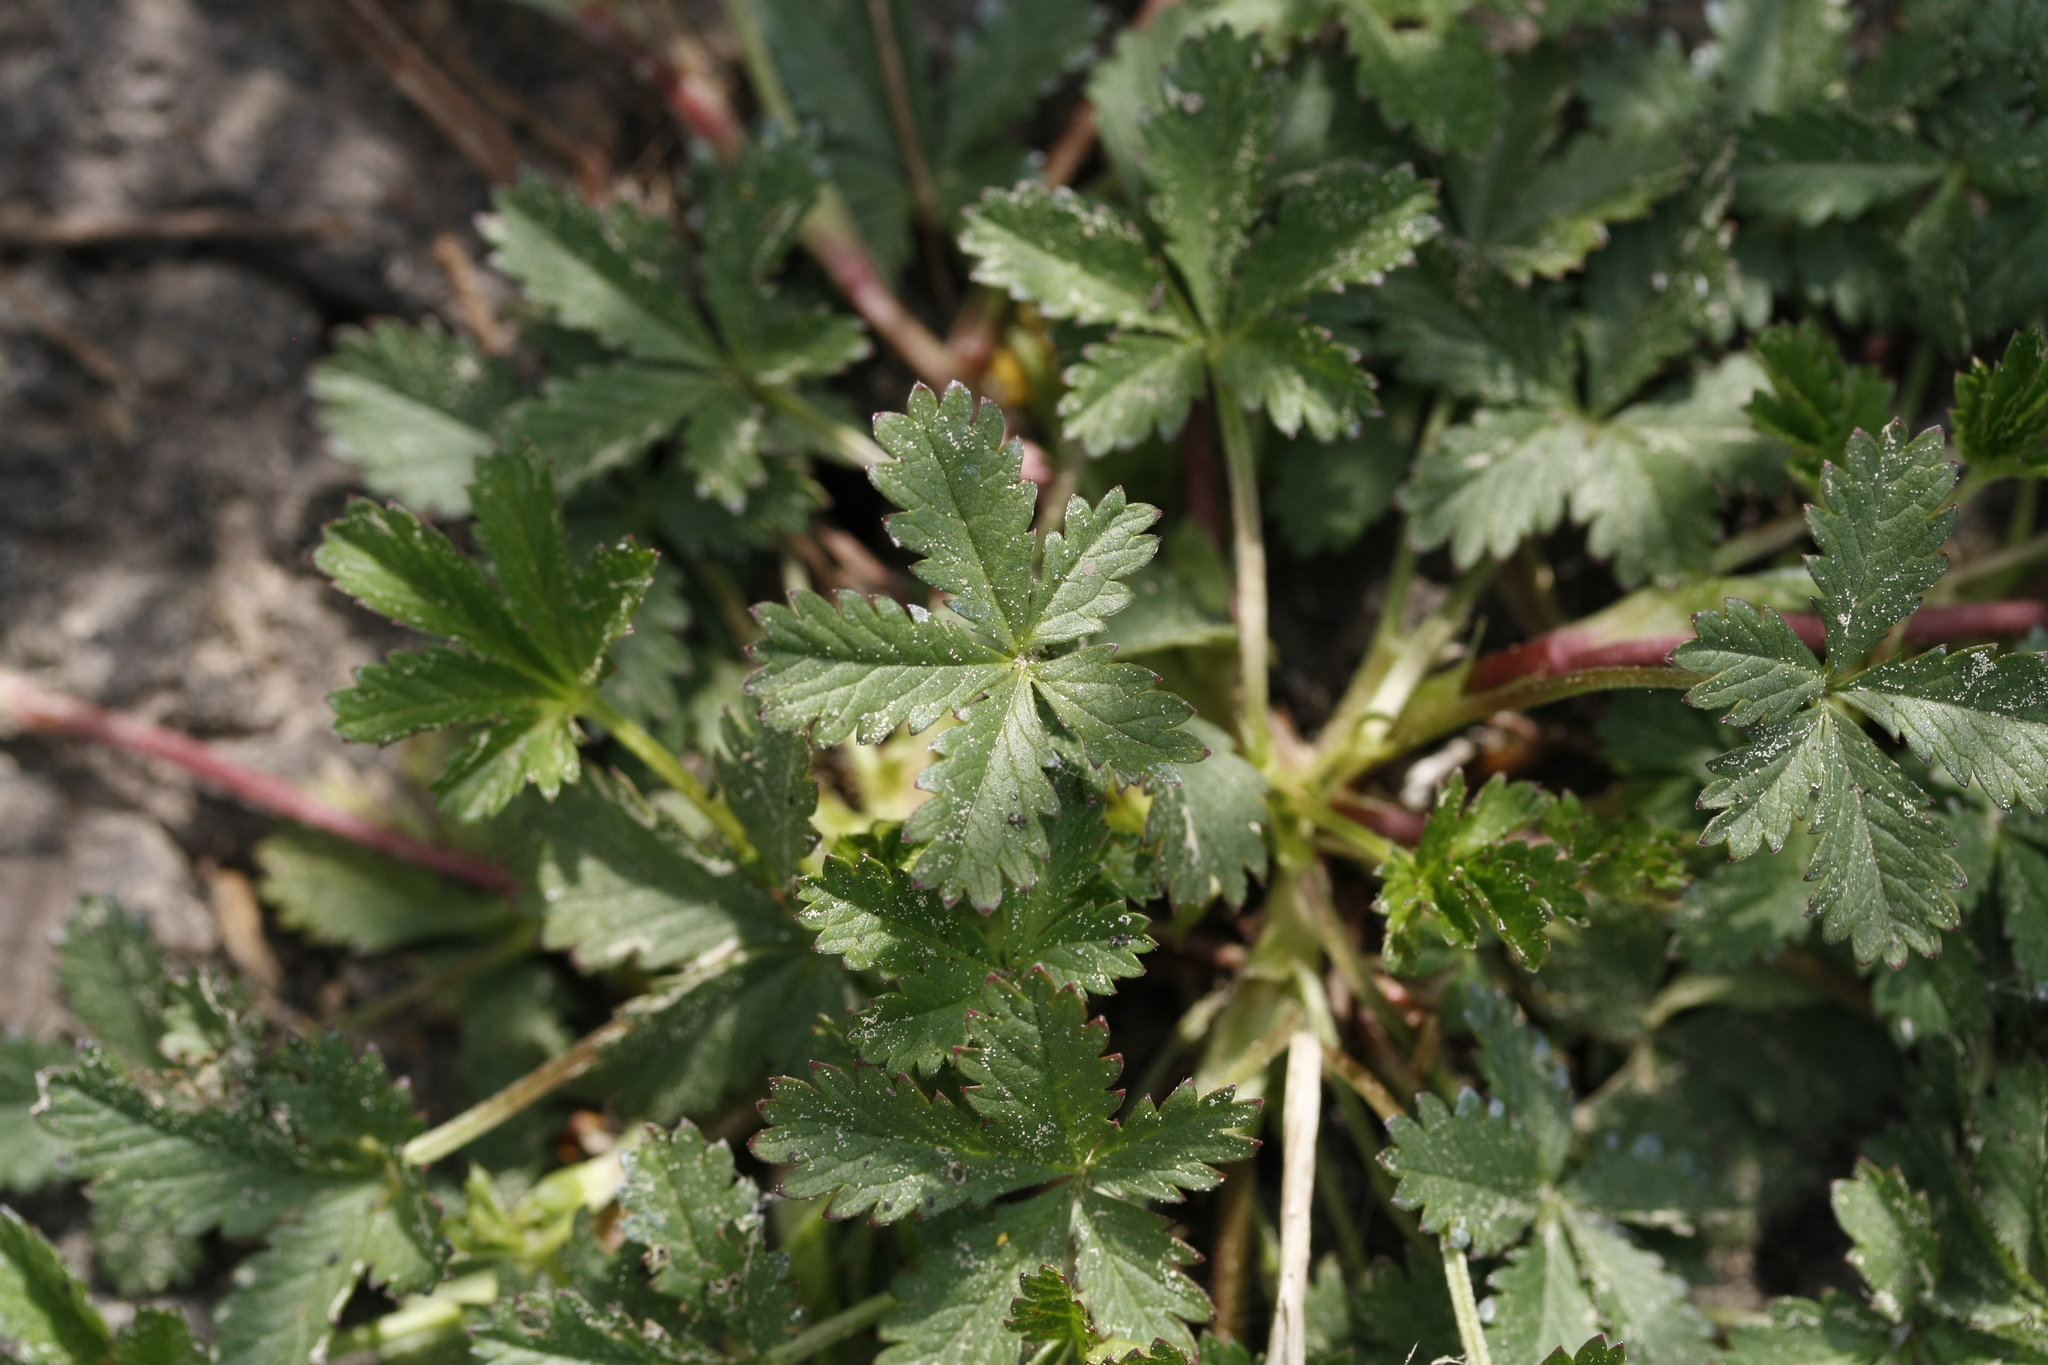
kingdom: Plantae
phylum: Tracheophyta
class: Magnoliopsida
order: Rosales
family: Rosaceae
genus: Potentilla
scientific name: Potentilla reptans
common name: Creeping cinquefoil
